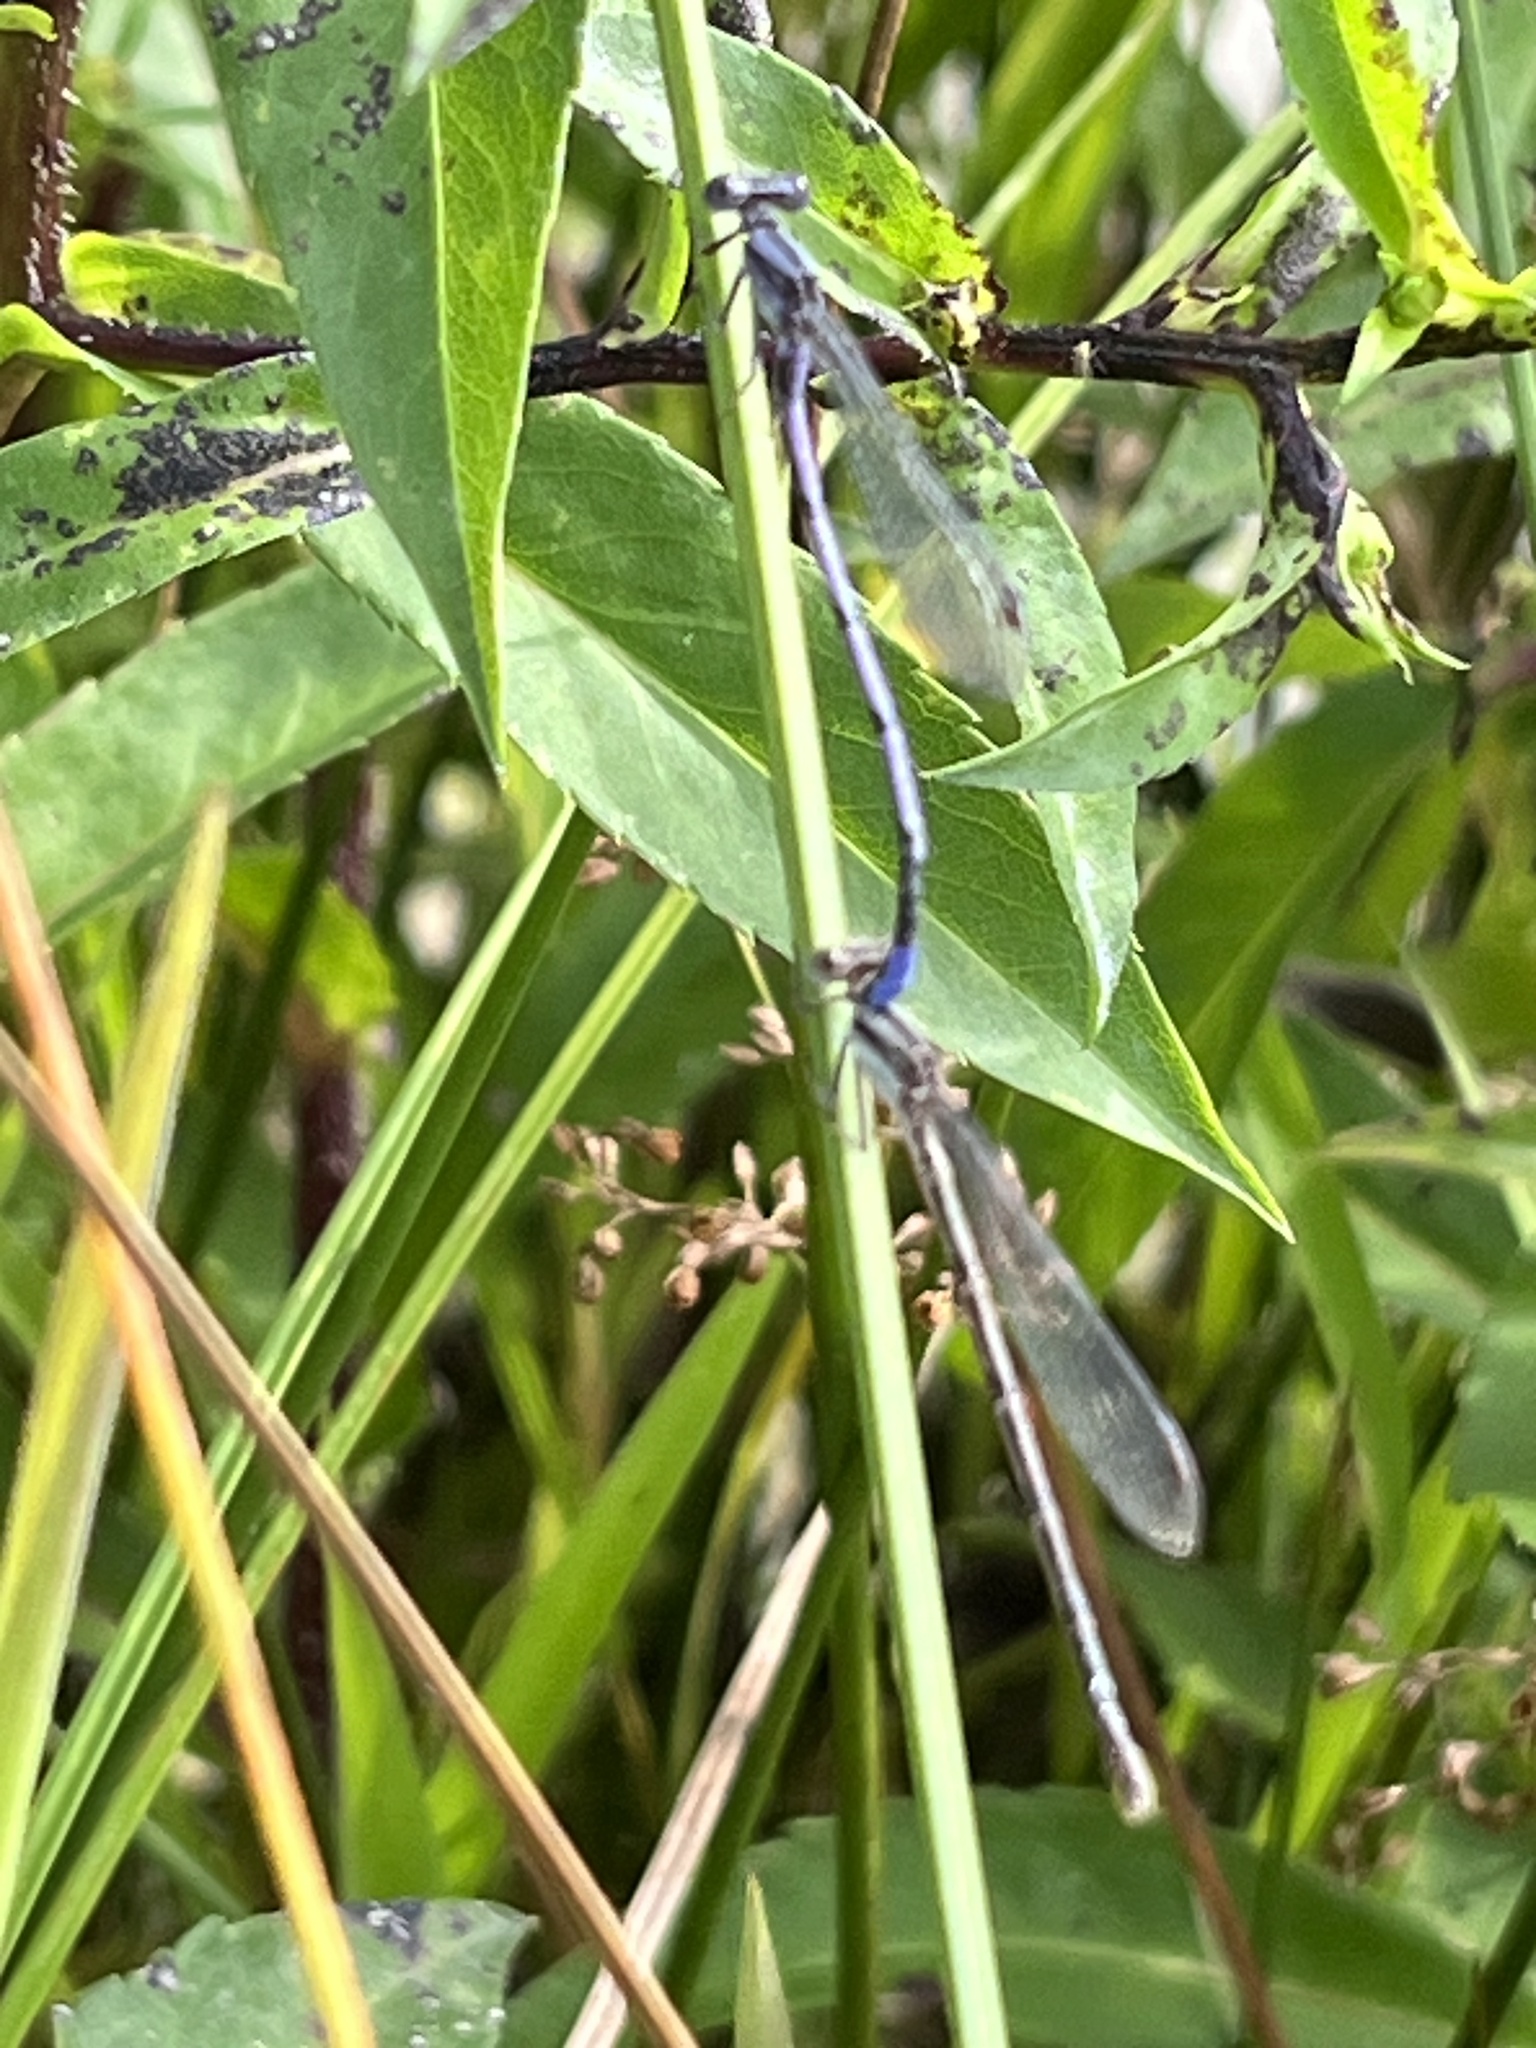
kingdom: Animalia
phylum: Arthropoda
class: Insecta
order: Odonata
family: Coenagrionidae
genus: Argia
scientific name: Argia fumipennis
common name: Variable dancer
